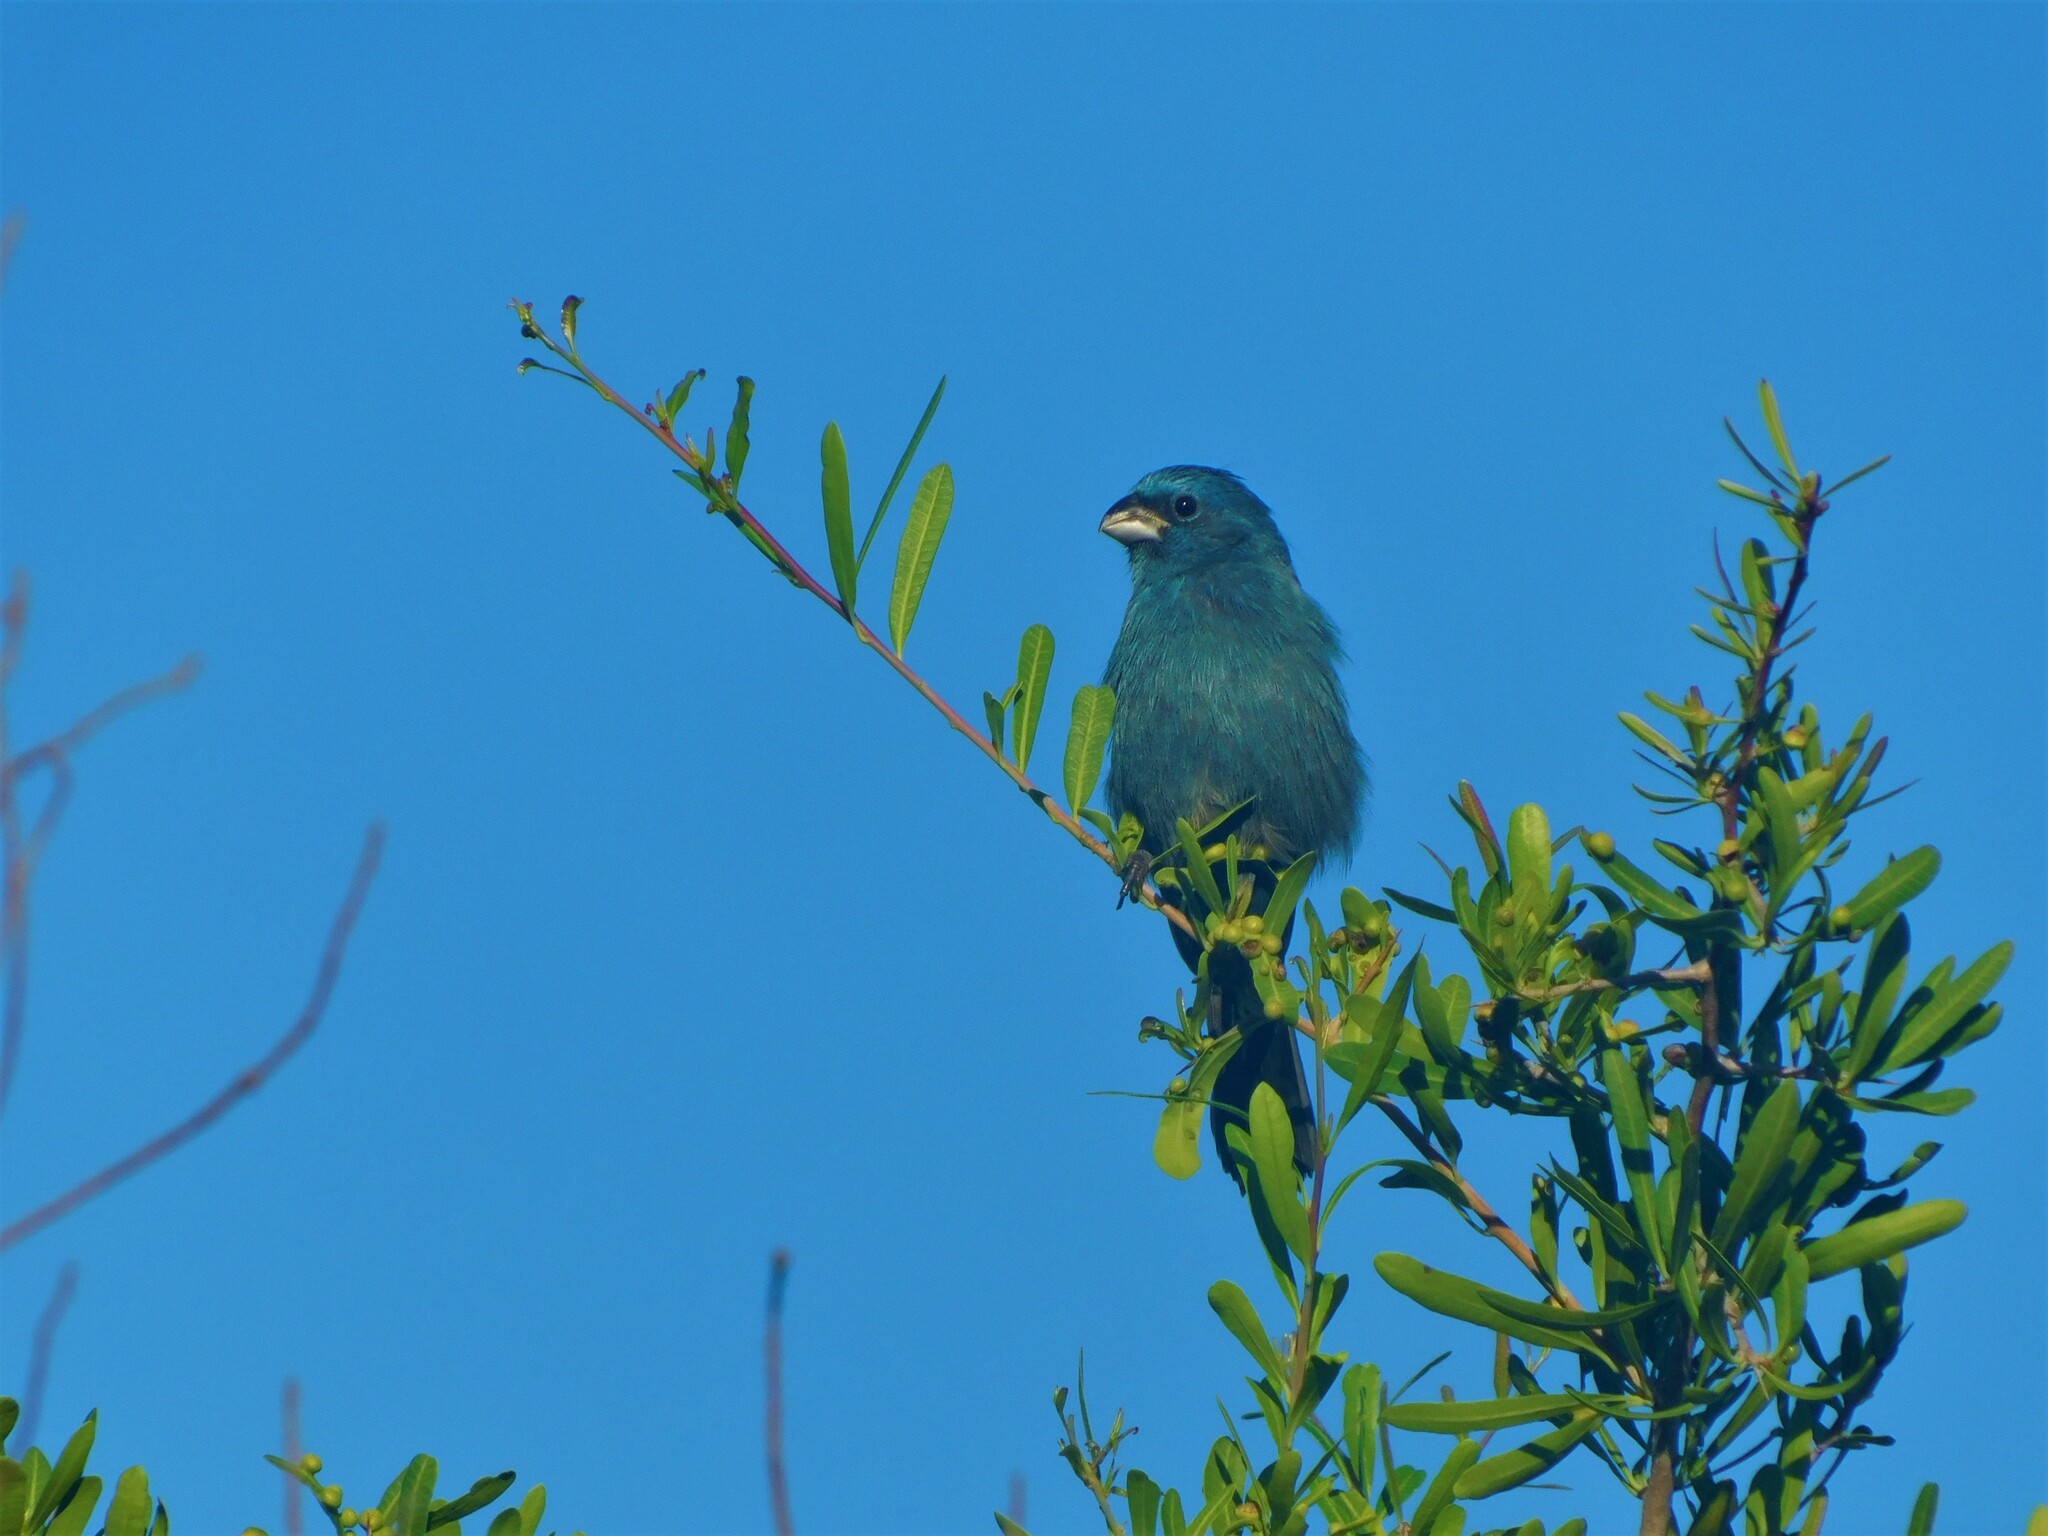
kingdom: Animalia
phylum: Chordata
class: Aves
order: Passeriformes
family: Cardinalidae
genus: Cyanoloxia
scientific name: Cyanoloxia glaucocaerulea
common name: Glaucous-blue grosbeak
